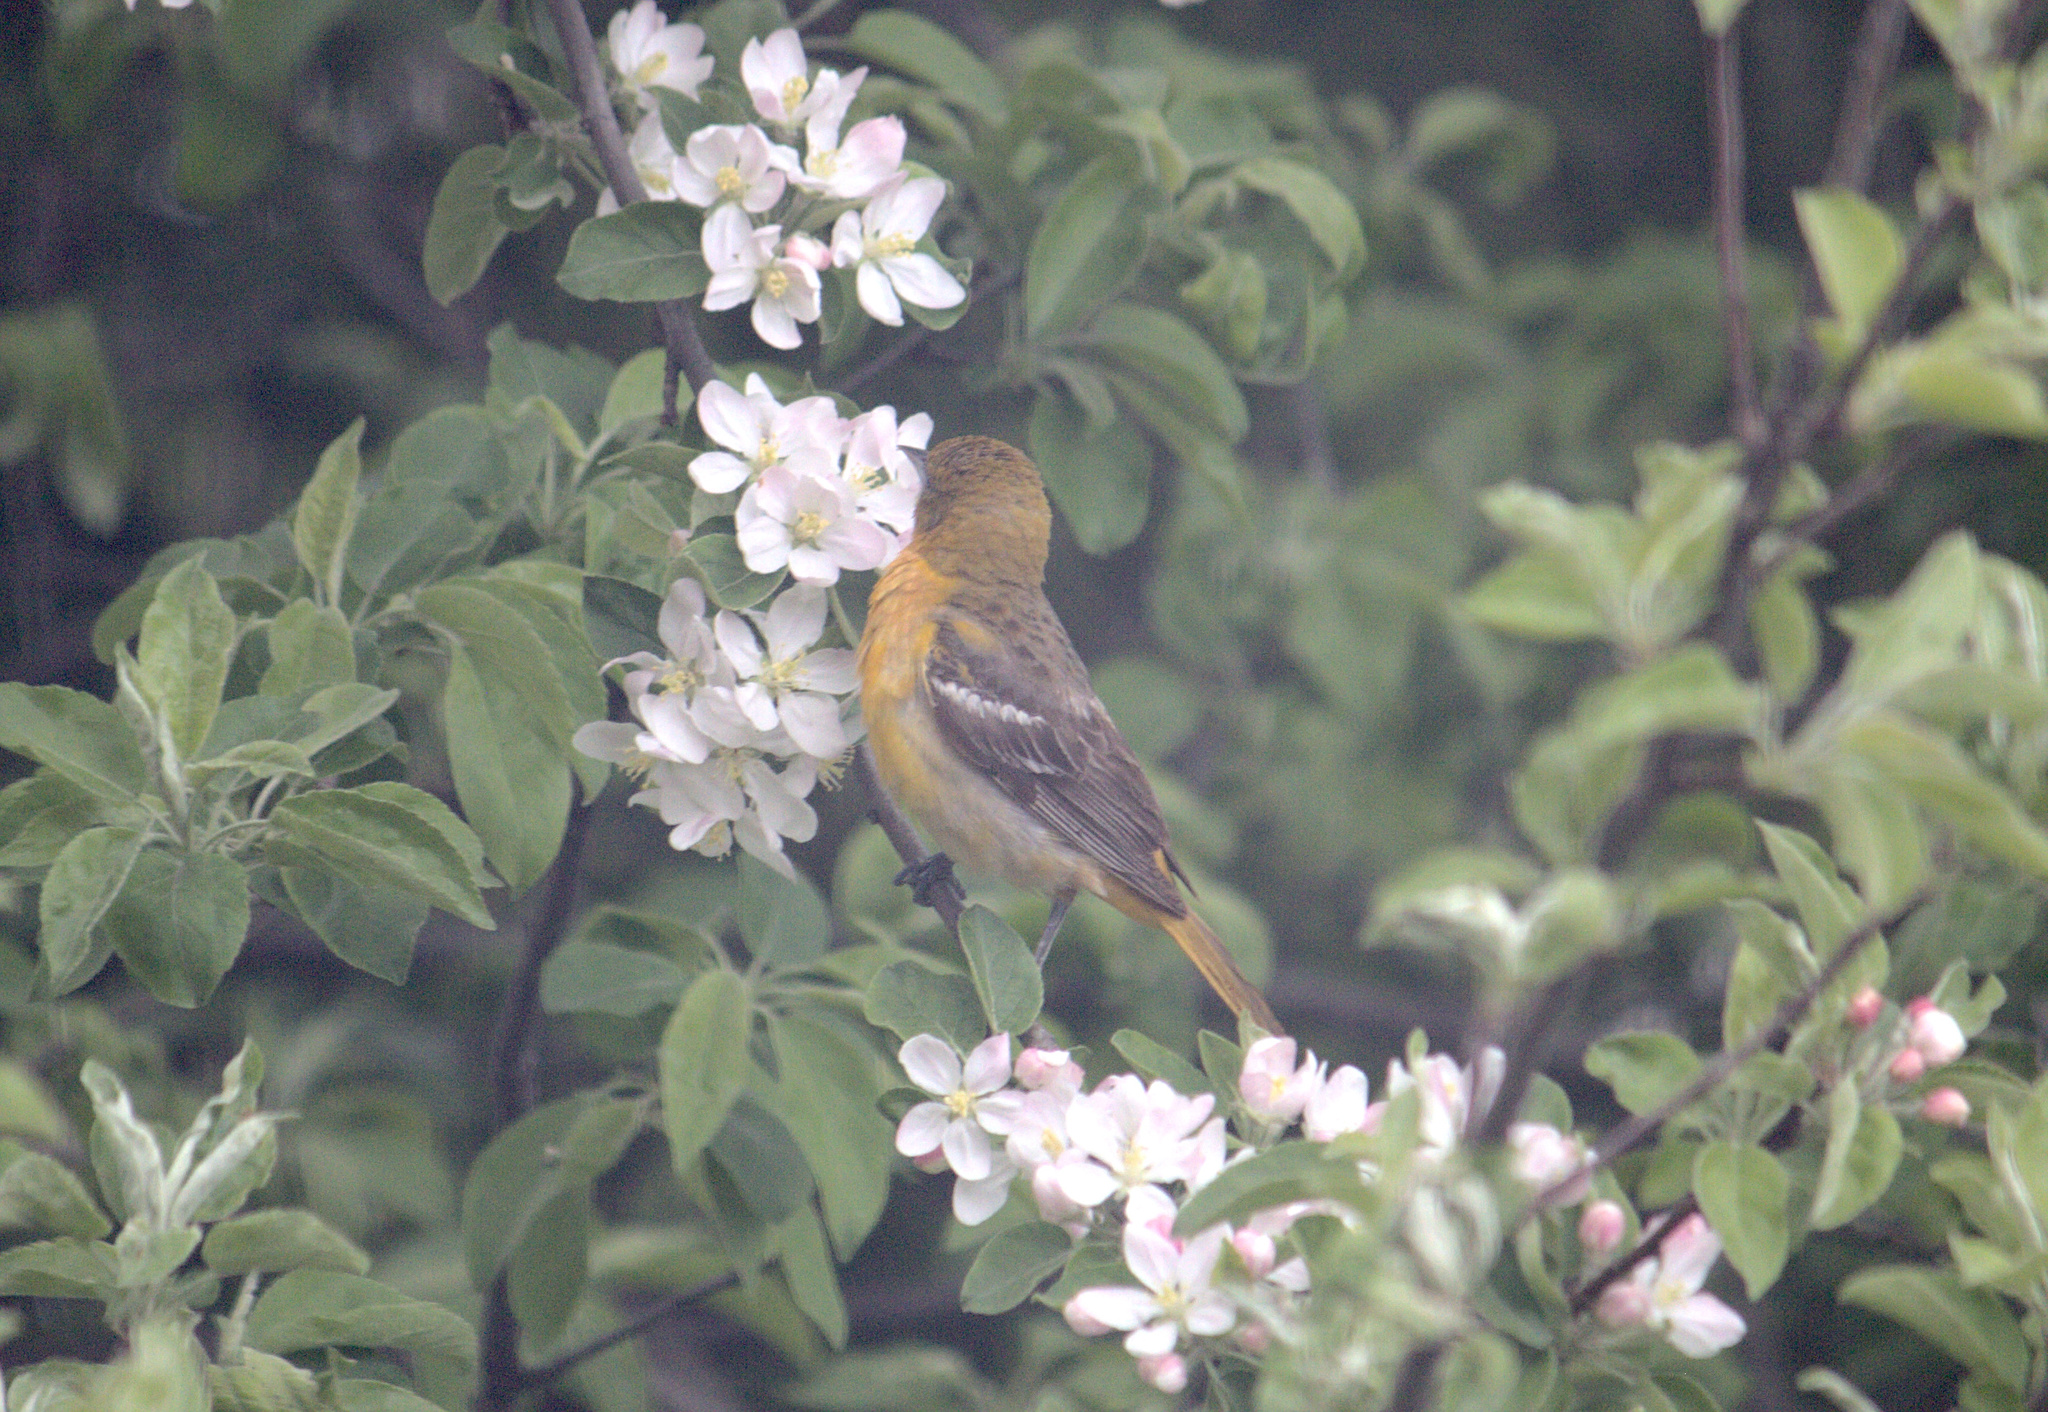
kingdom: Animalia
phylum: Chordata
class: Aves
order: Passeriformes
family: Icteridae
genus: Icterus
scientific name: Icterus galbula
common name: Baltimore oriole
